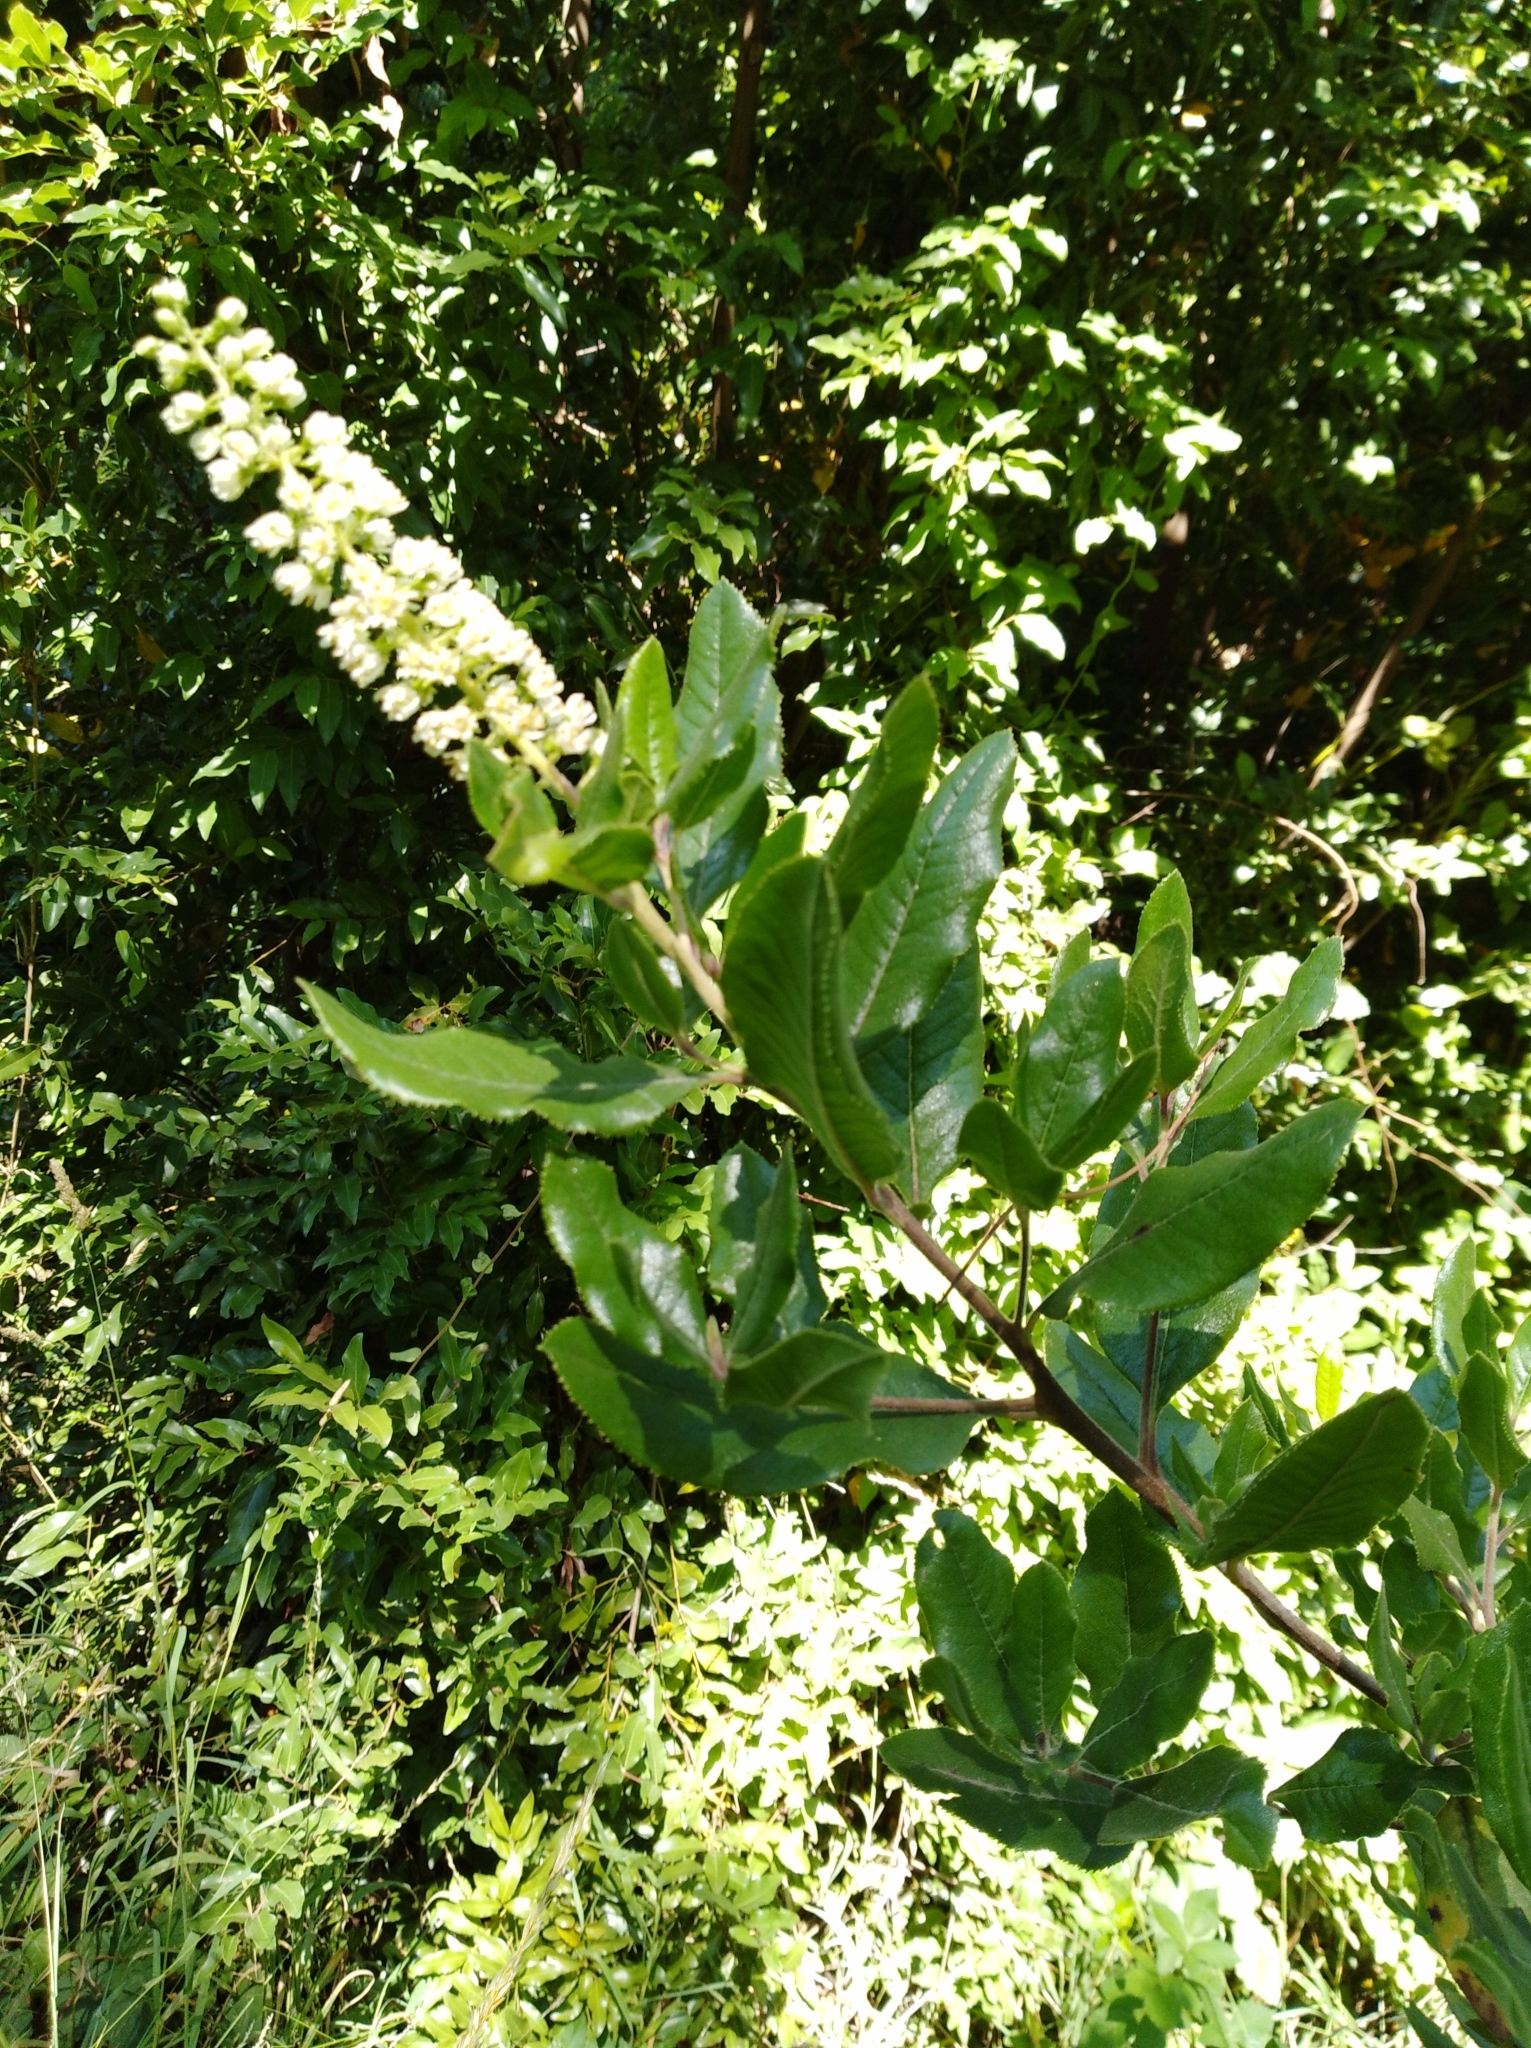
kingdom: Plantae
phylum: Tracheophyta
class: Magnoliopsida
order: Escalloniales
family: Escalloniaceae
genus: Escallonia
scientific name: Escallonia pulverulenta
